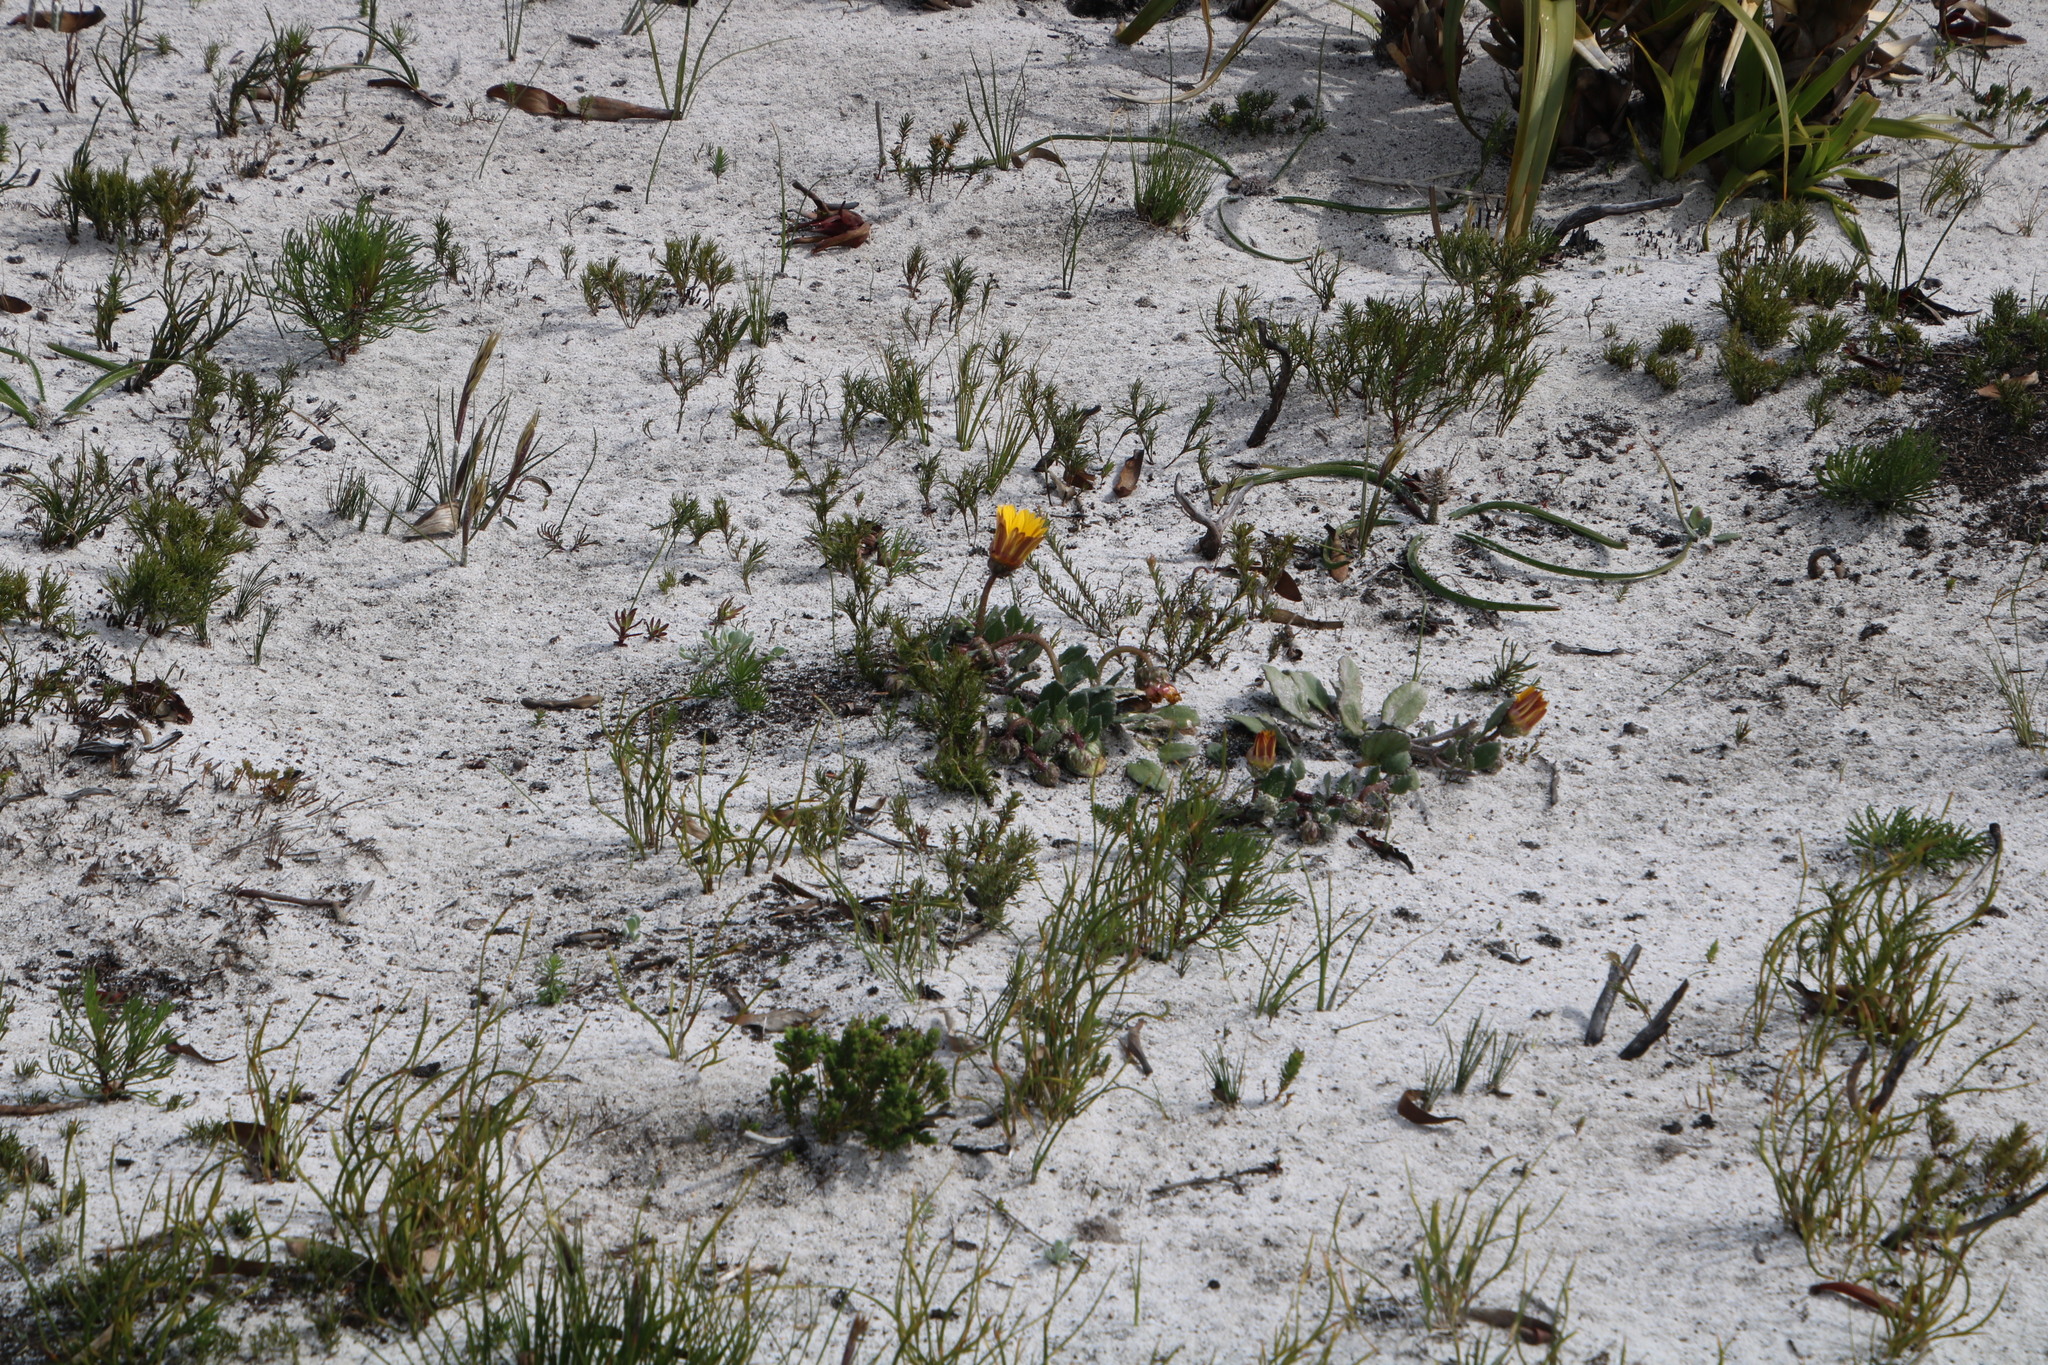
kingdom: Plantae
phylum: Tracheophyta
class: Magnoliopsida
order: Asterales
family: Asteraceae
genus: Arctotis
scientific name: Arctotis angustifolia
